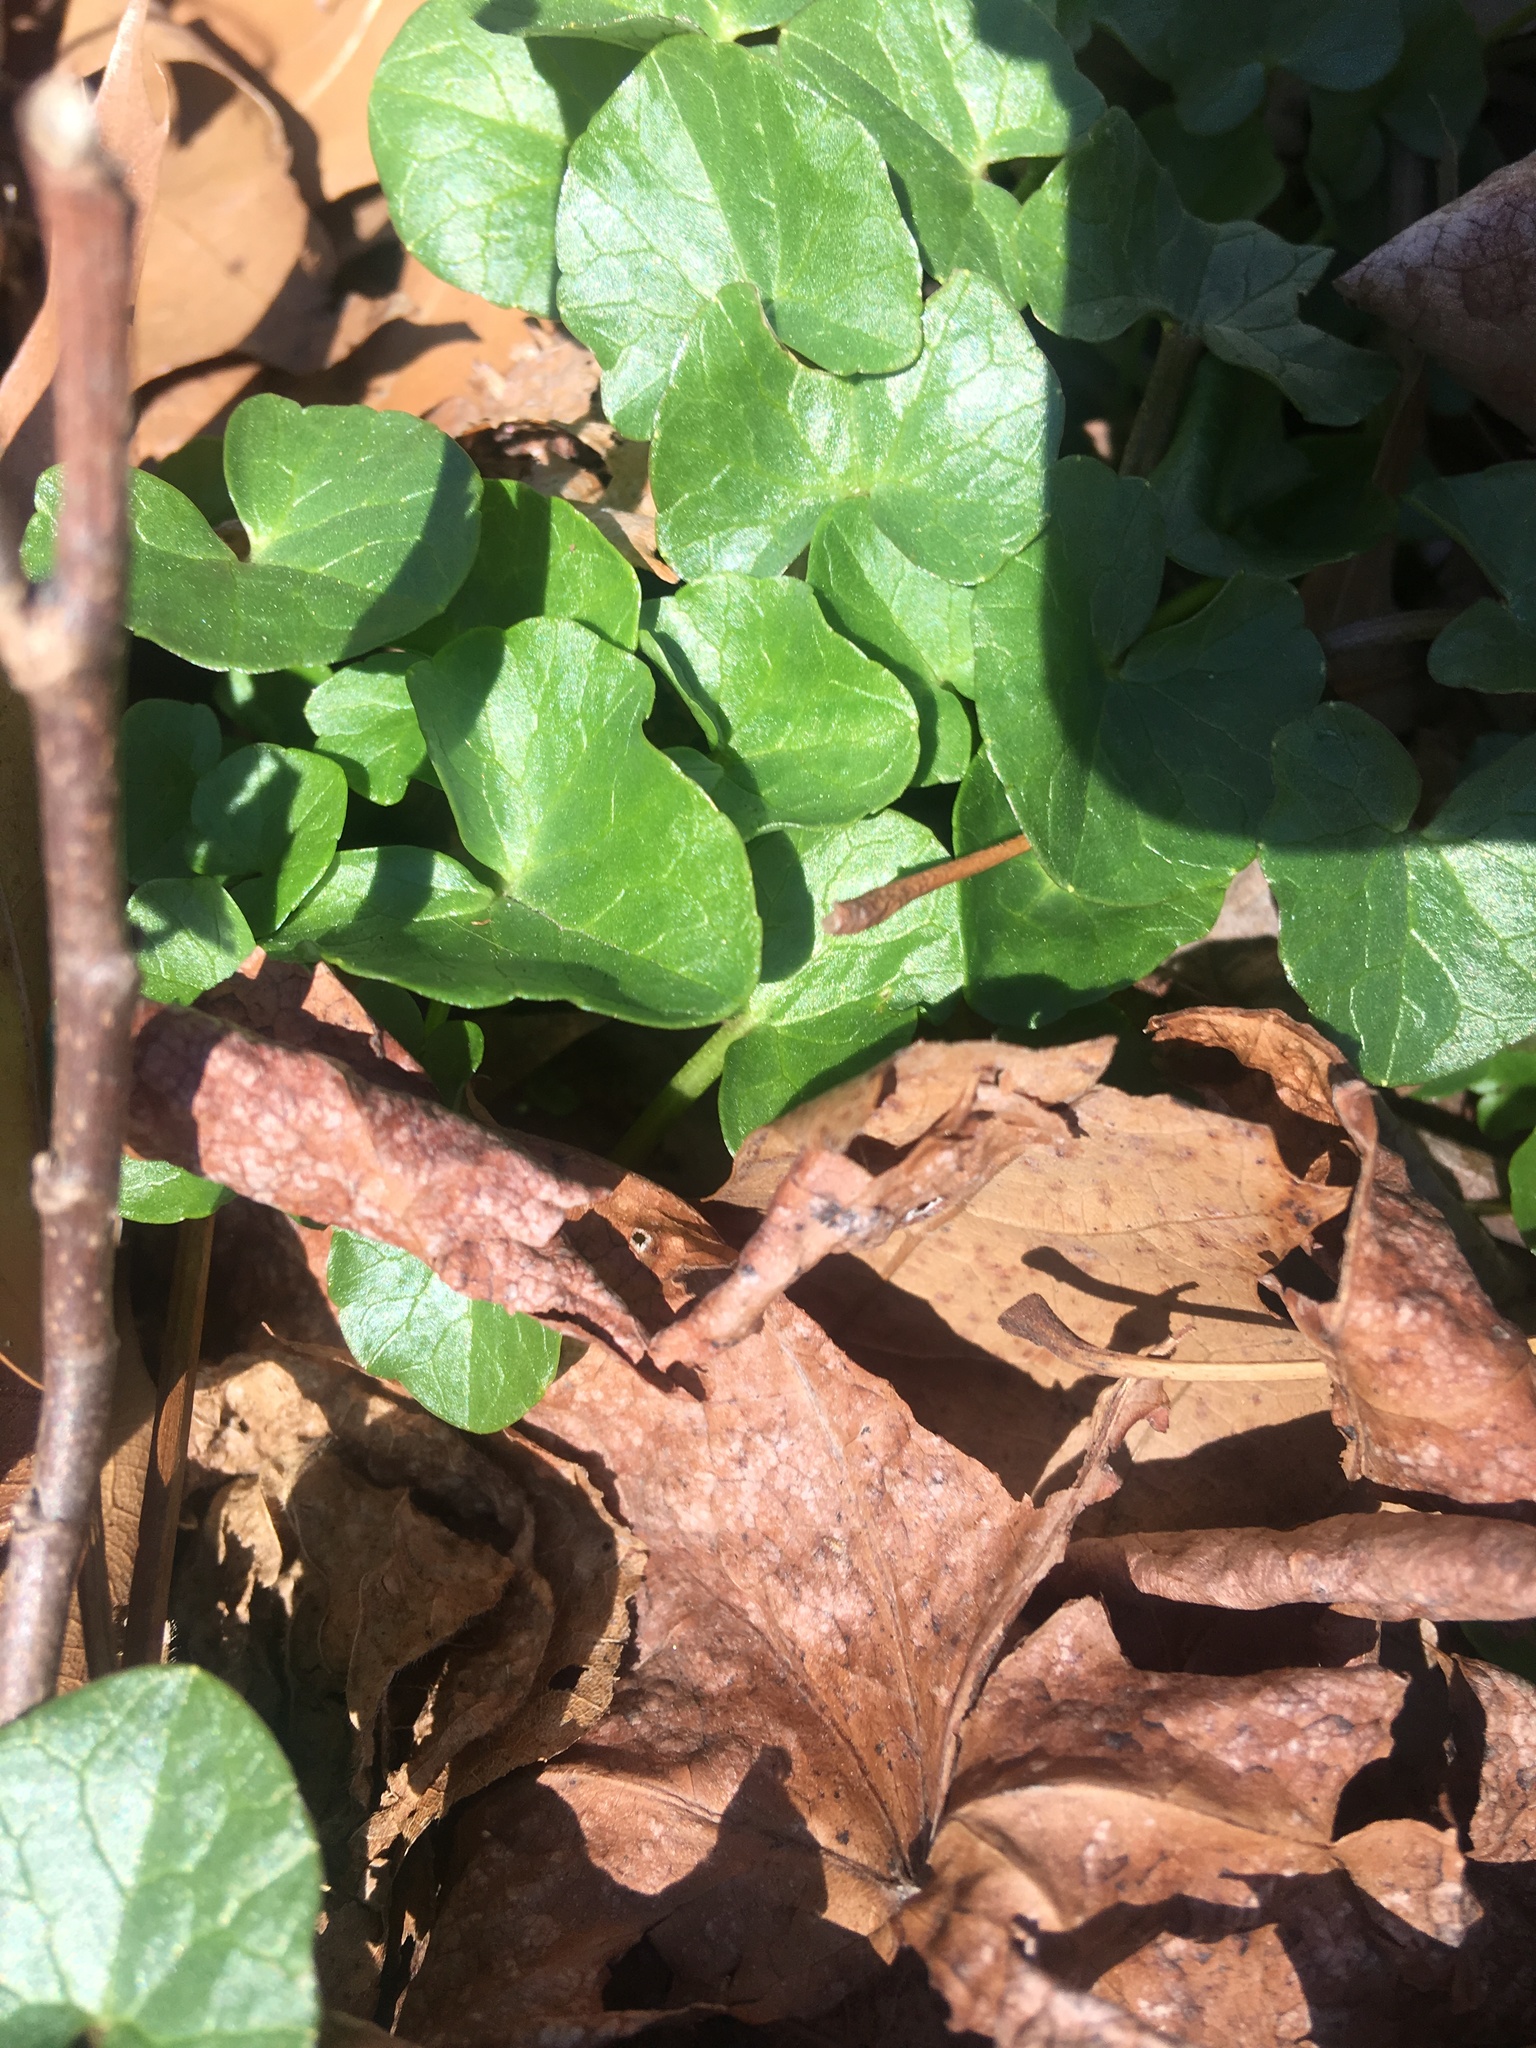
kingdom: Plantae
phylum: Tracheophyta
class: Magnoliopsida
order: Ranunculales
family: Ranunculaceae
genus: Ficaria
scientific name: Ficaria verna
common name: Lesser celandine
